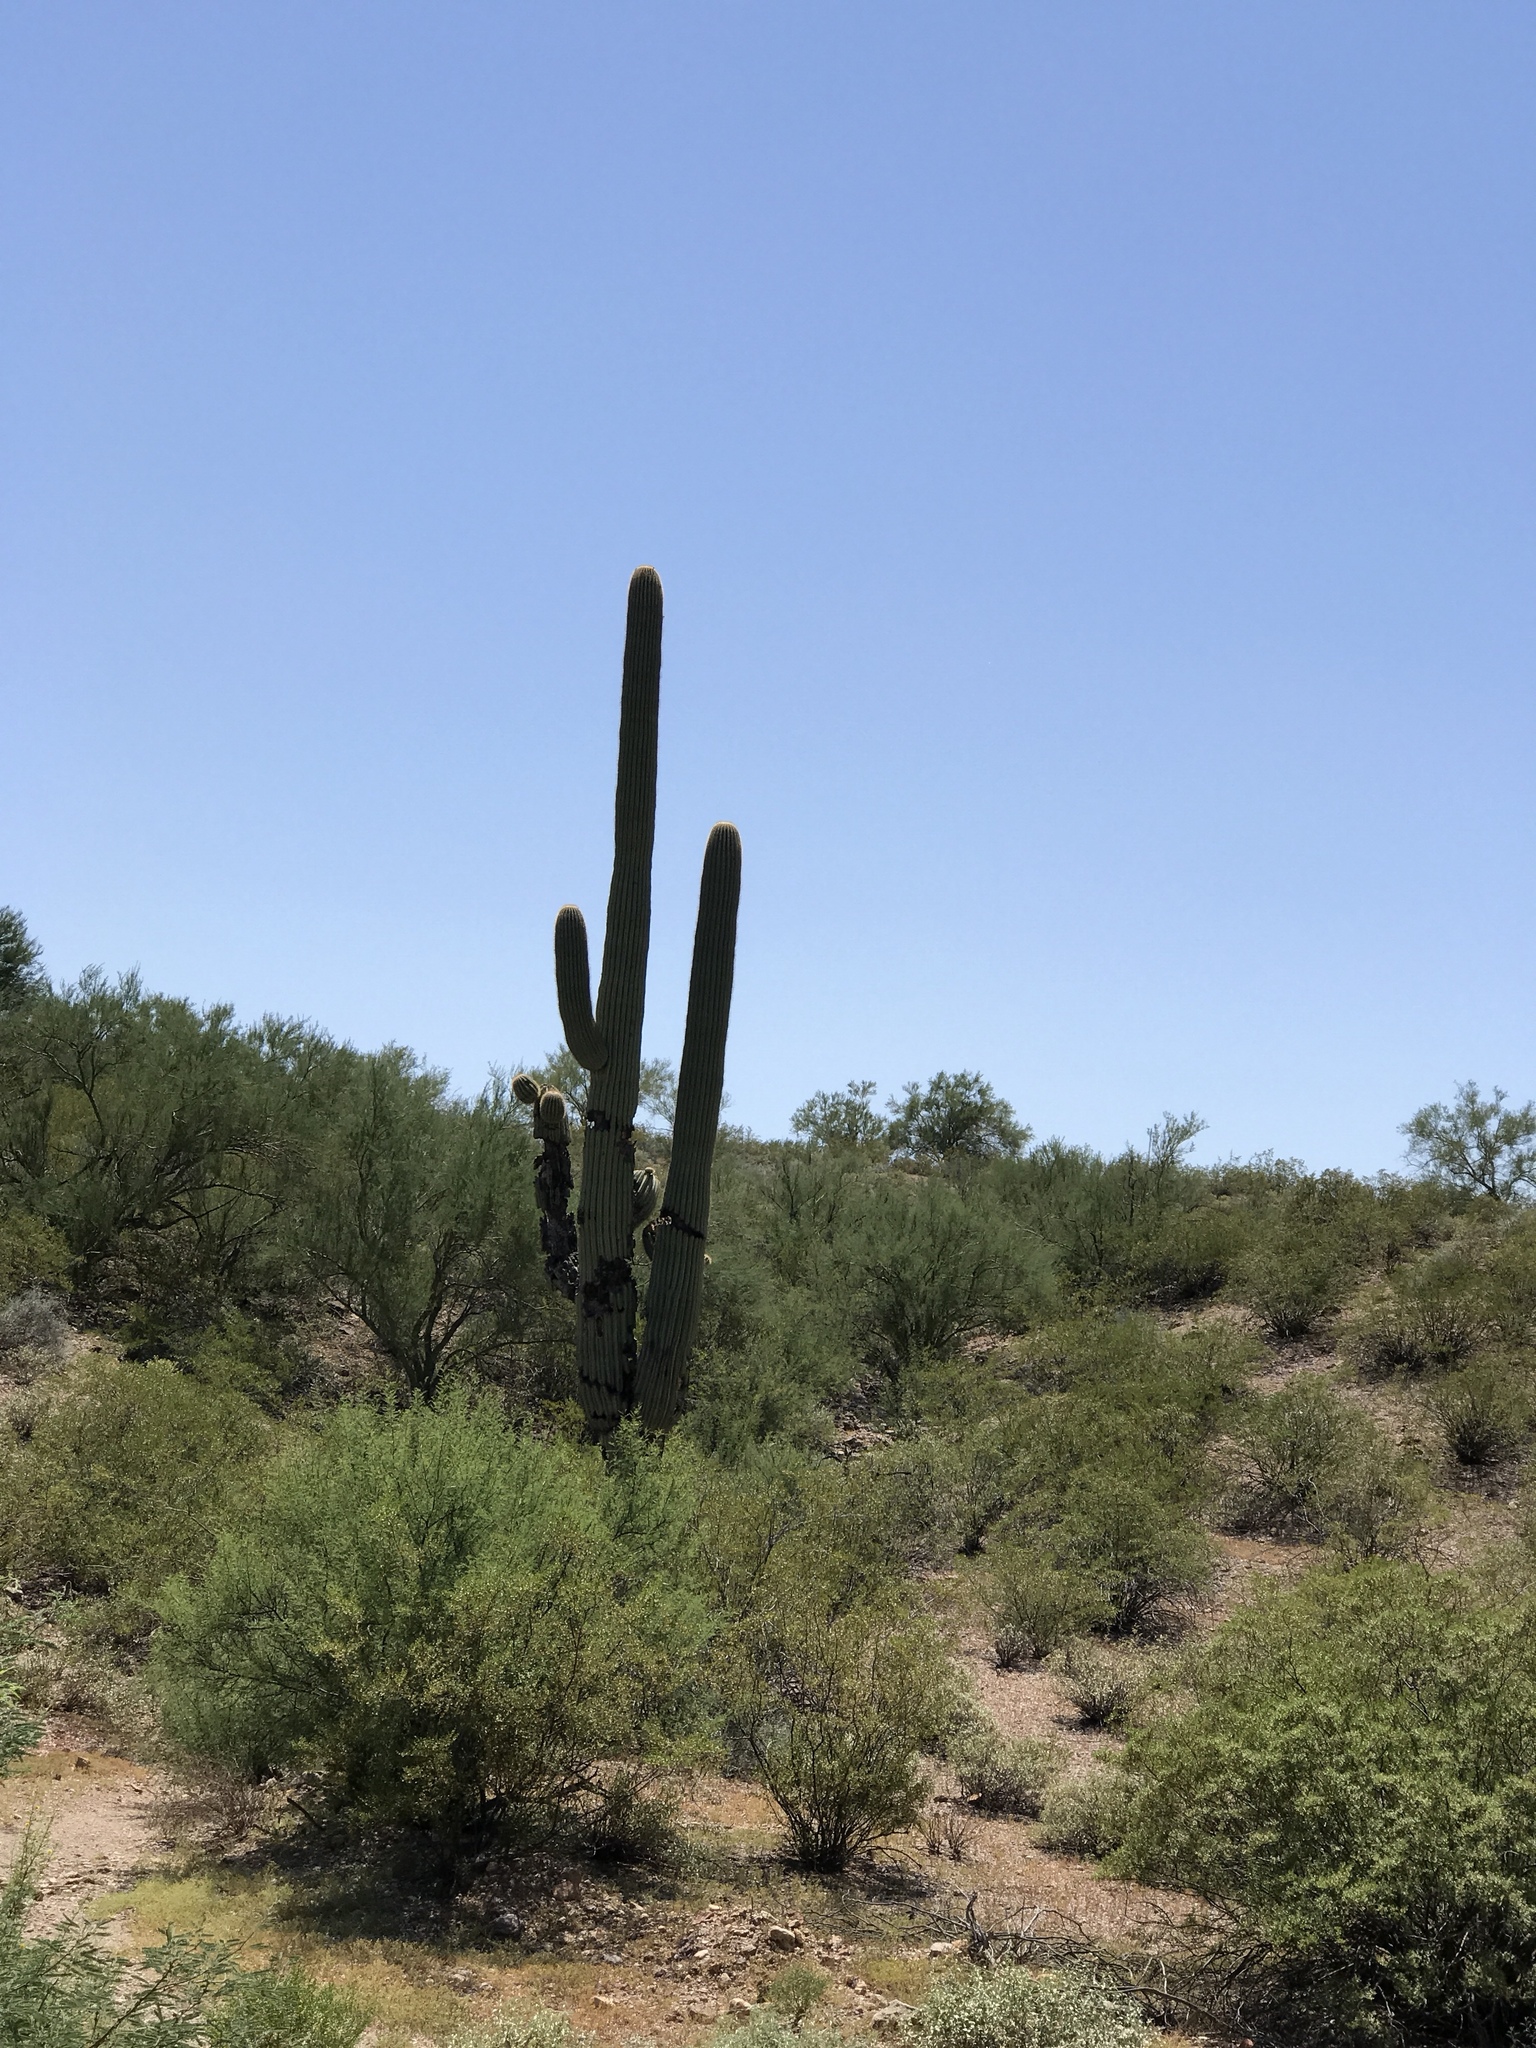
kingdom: Plantae
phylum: Tracheophyta
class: Magnoliopsida
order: Caryophyllales
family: Cactaceae
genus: Carnegiea
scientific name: Carnegiea gigantea
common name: Saguaro
